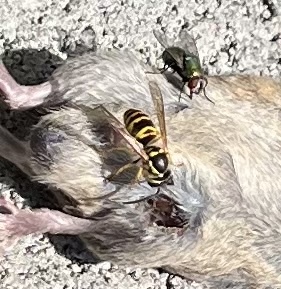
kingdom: Animalia
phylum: Arthropoda
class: Insecta
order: Hymenoptera
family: Vespidae
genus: Vespula
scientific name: Vespula maculifrons
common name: Eastern yellowjacket
